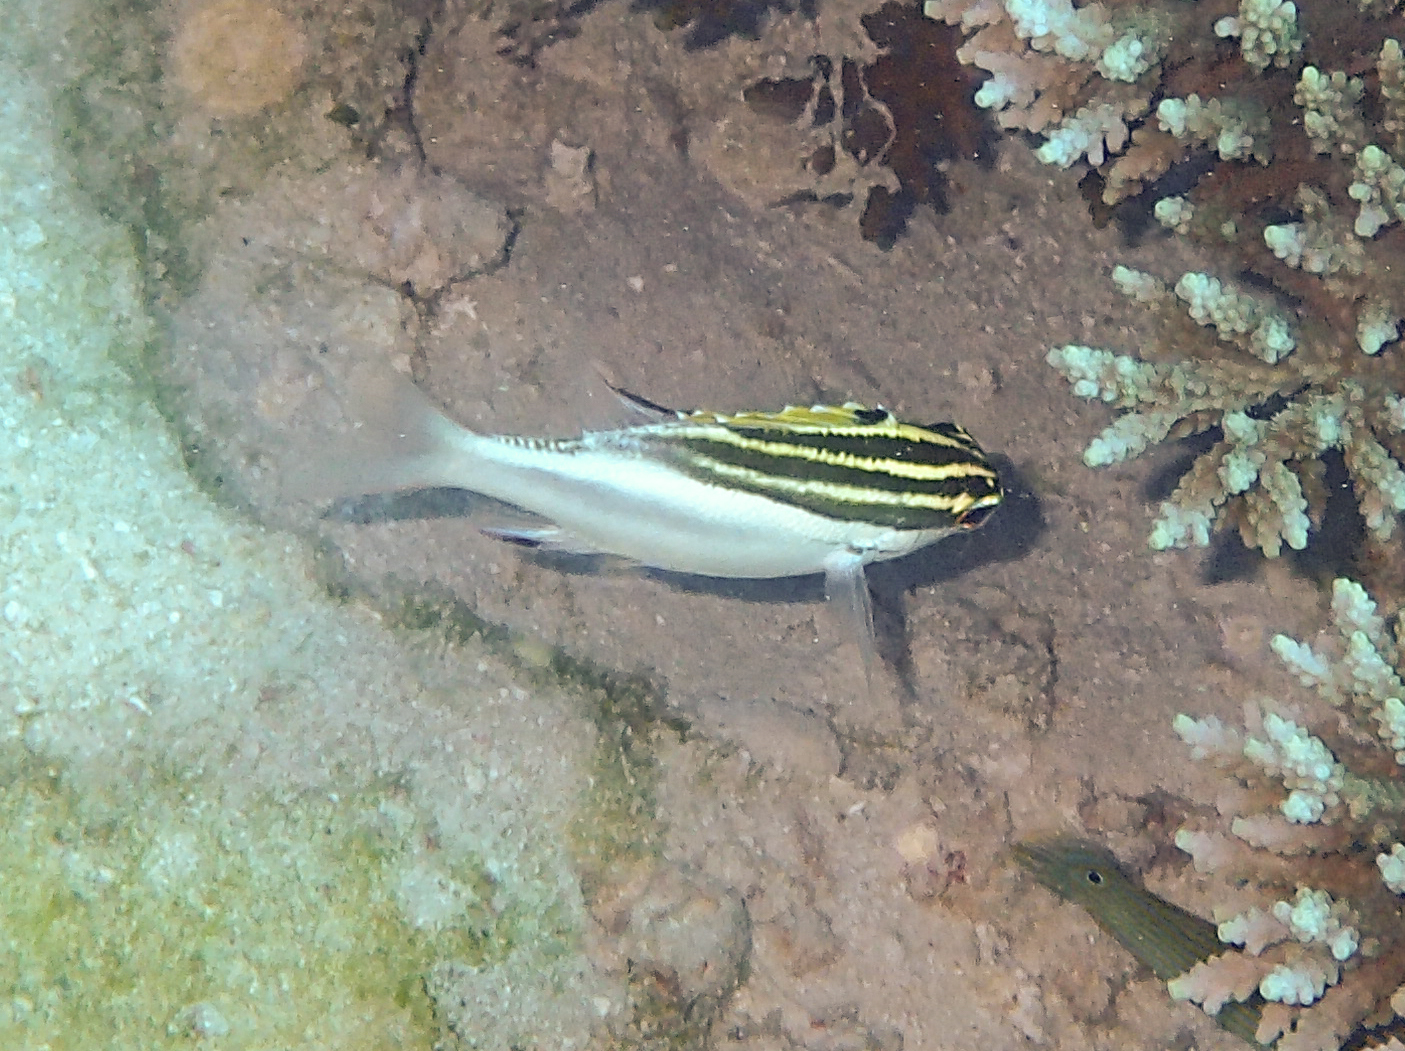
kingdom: Animalia
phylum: Chordata
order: Perciformes
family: Nemipteridae
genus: Scolopsis
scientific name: Scolopsis bilineata
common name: Two-lined monocle bream
